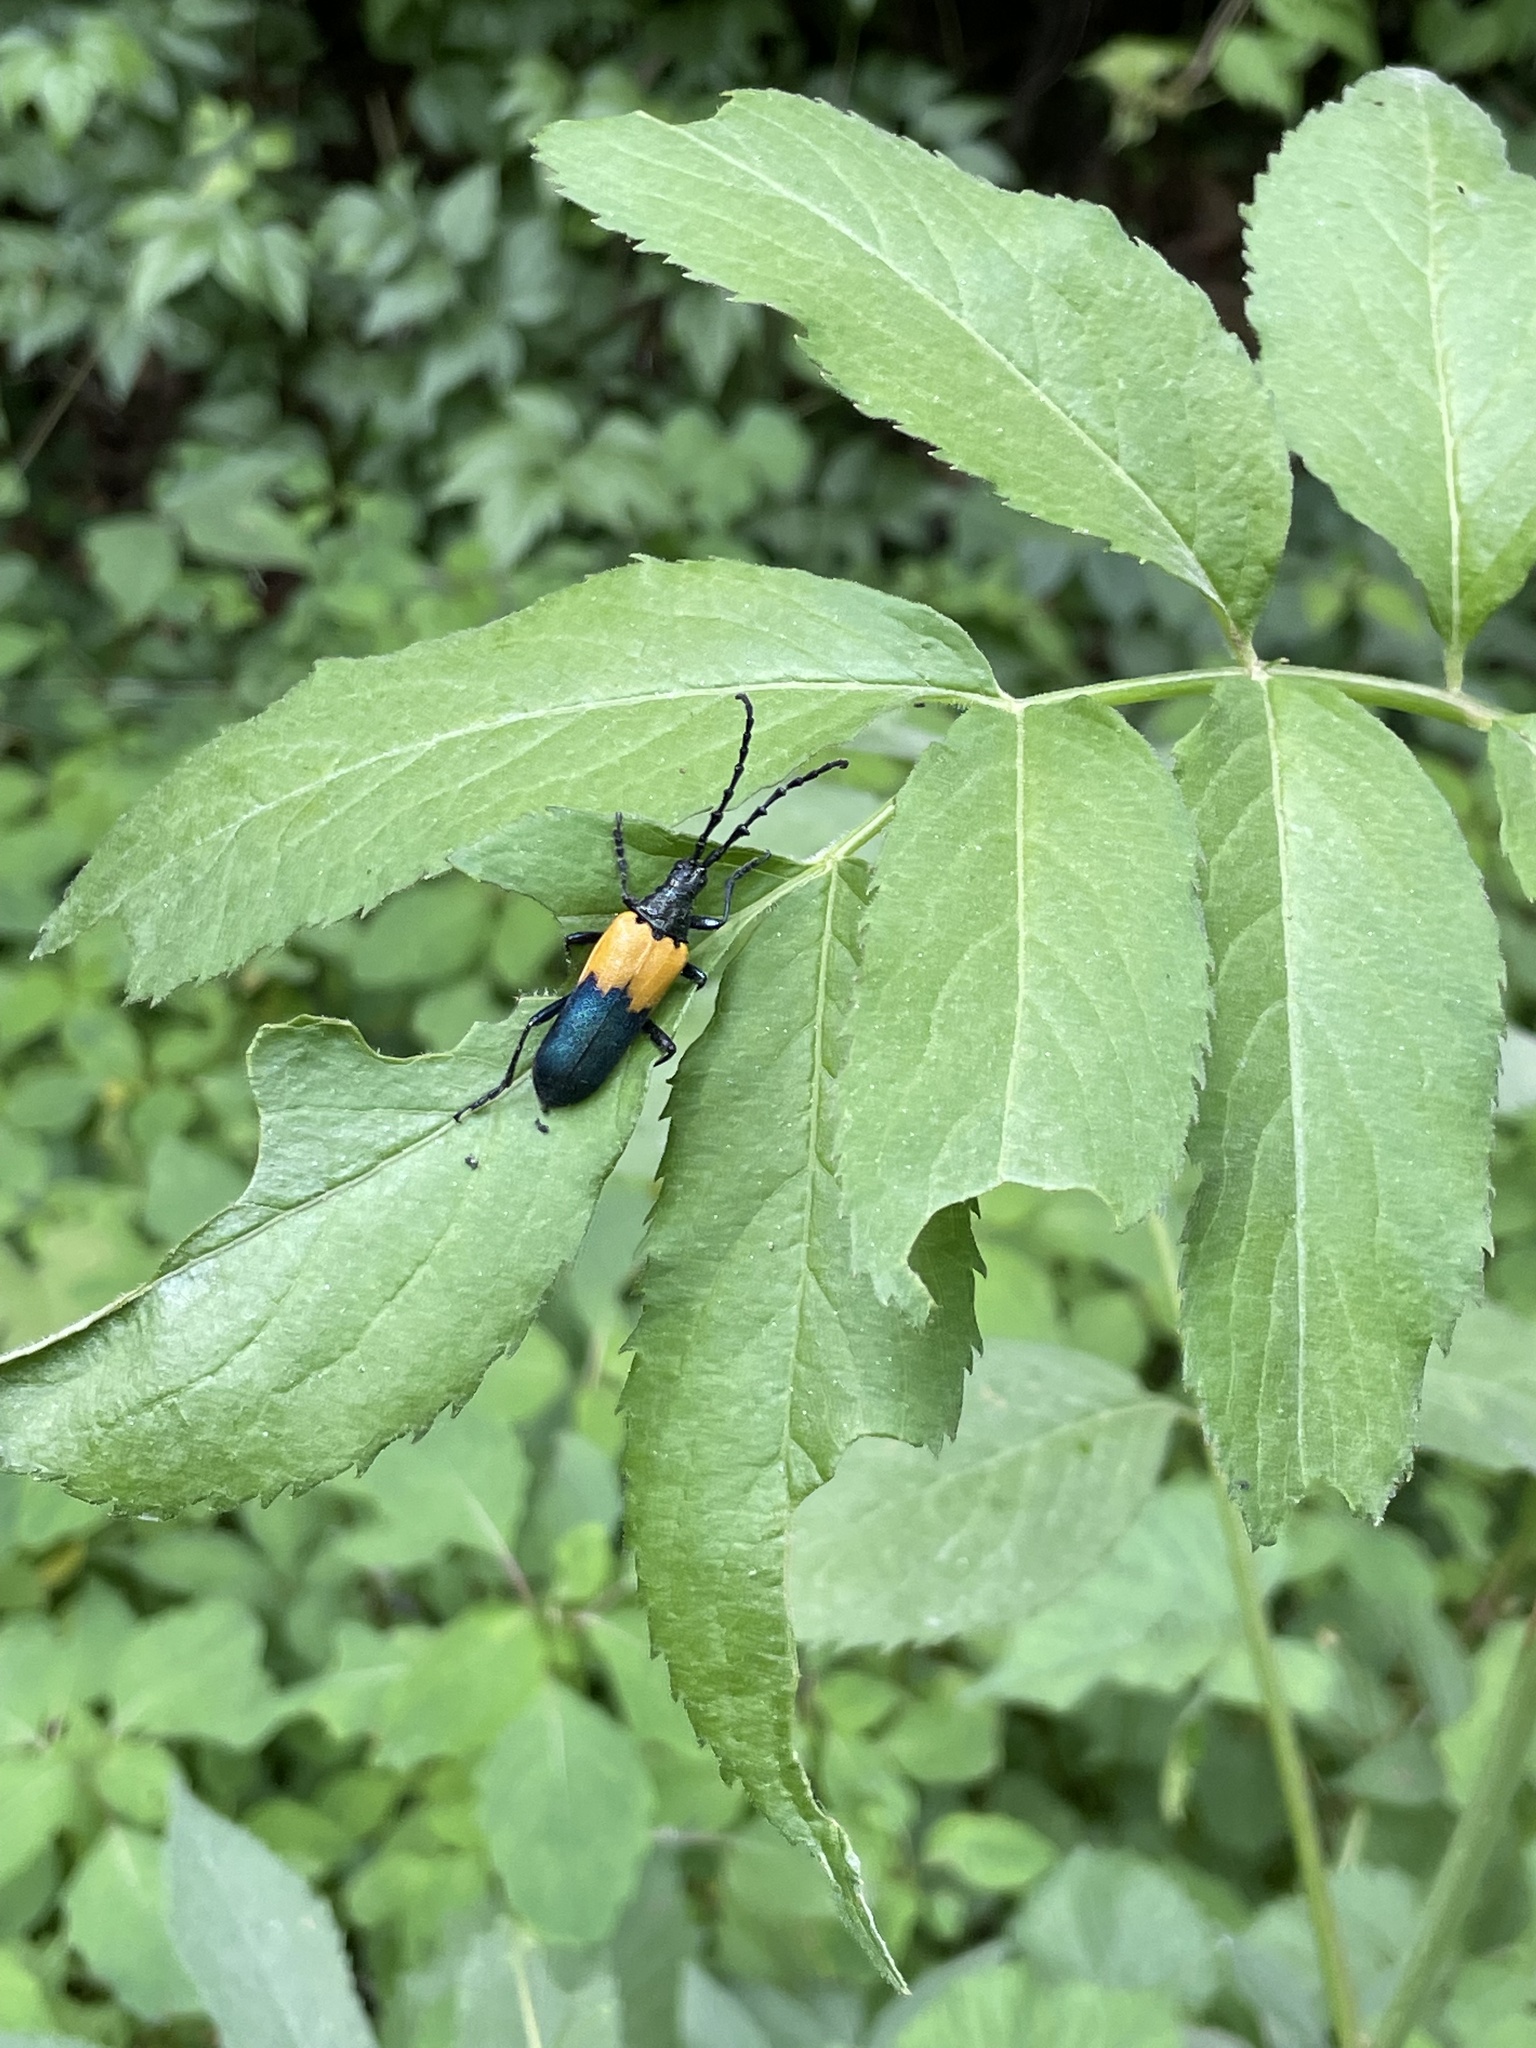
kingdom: Animalia
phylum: Arthropoda
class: Insecta
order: Coleoptera
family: Cerambycidae
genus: Desmocerus
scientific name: Desmocerus palliatus
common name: Eastern elderberry borer
